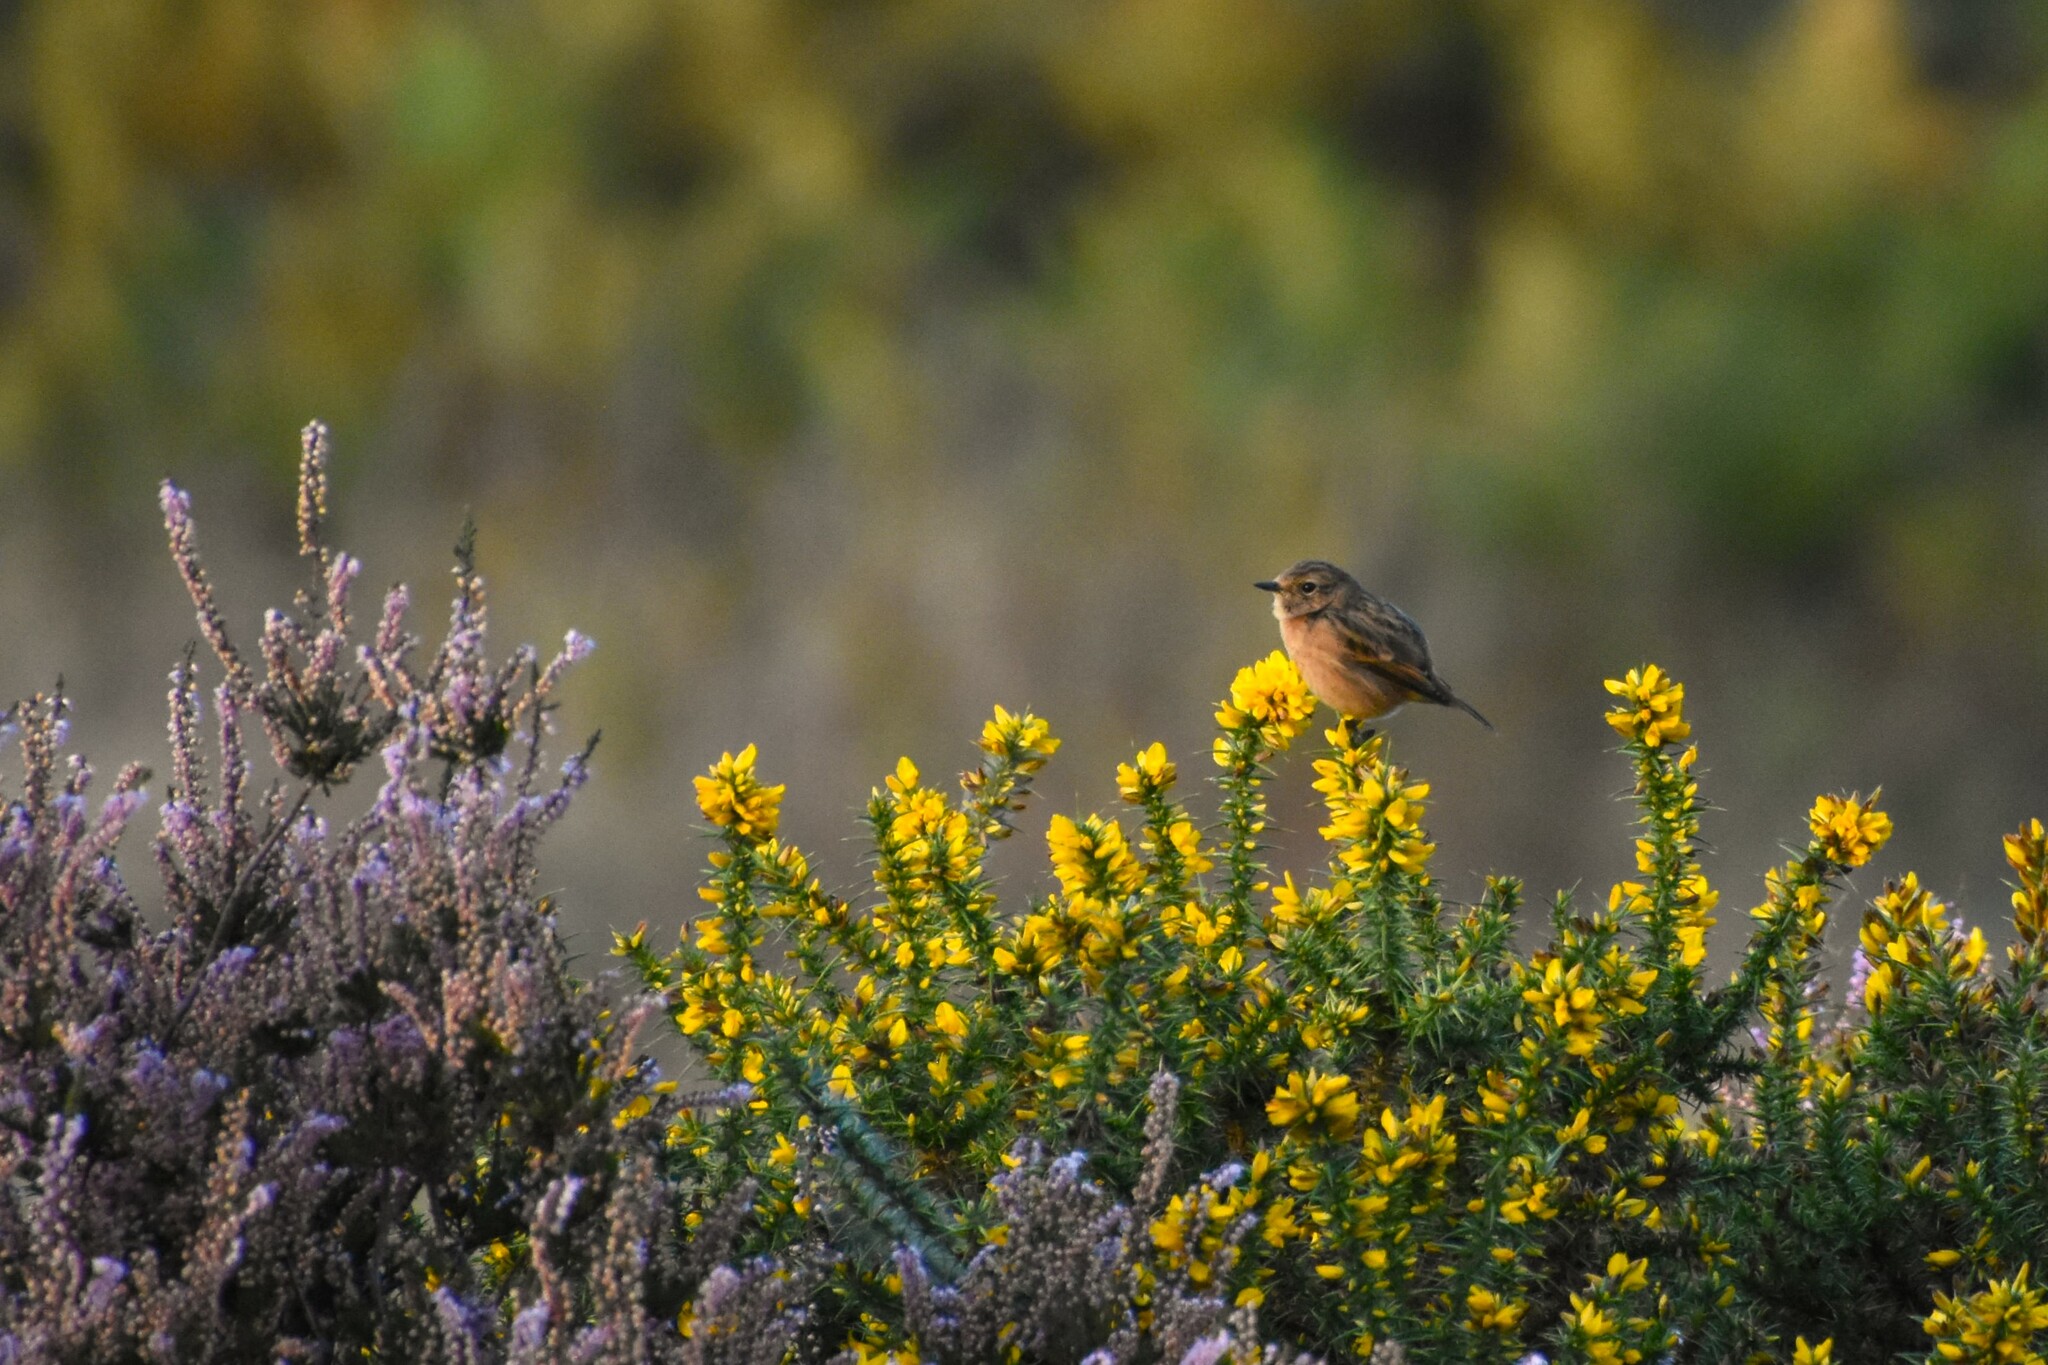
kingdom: Animalia
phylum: Chordata
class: Aves
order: Passeriformes
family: Muscicapidae
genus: Saxicola
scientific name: Saxicola rubicola
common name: European stonechat
